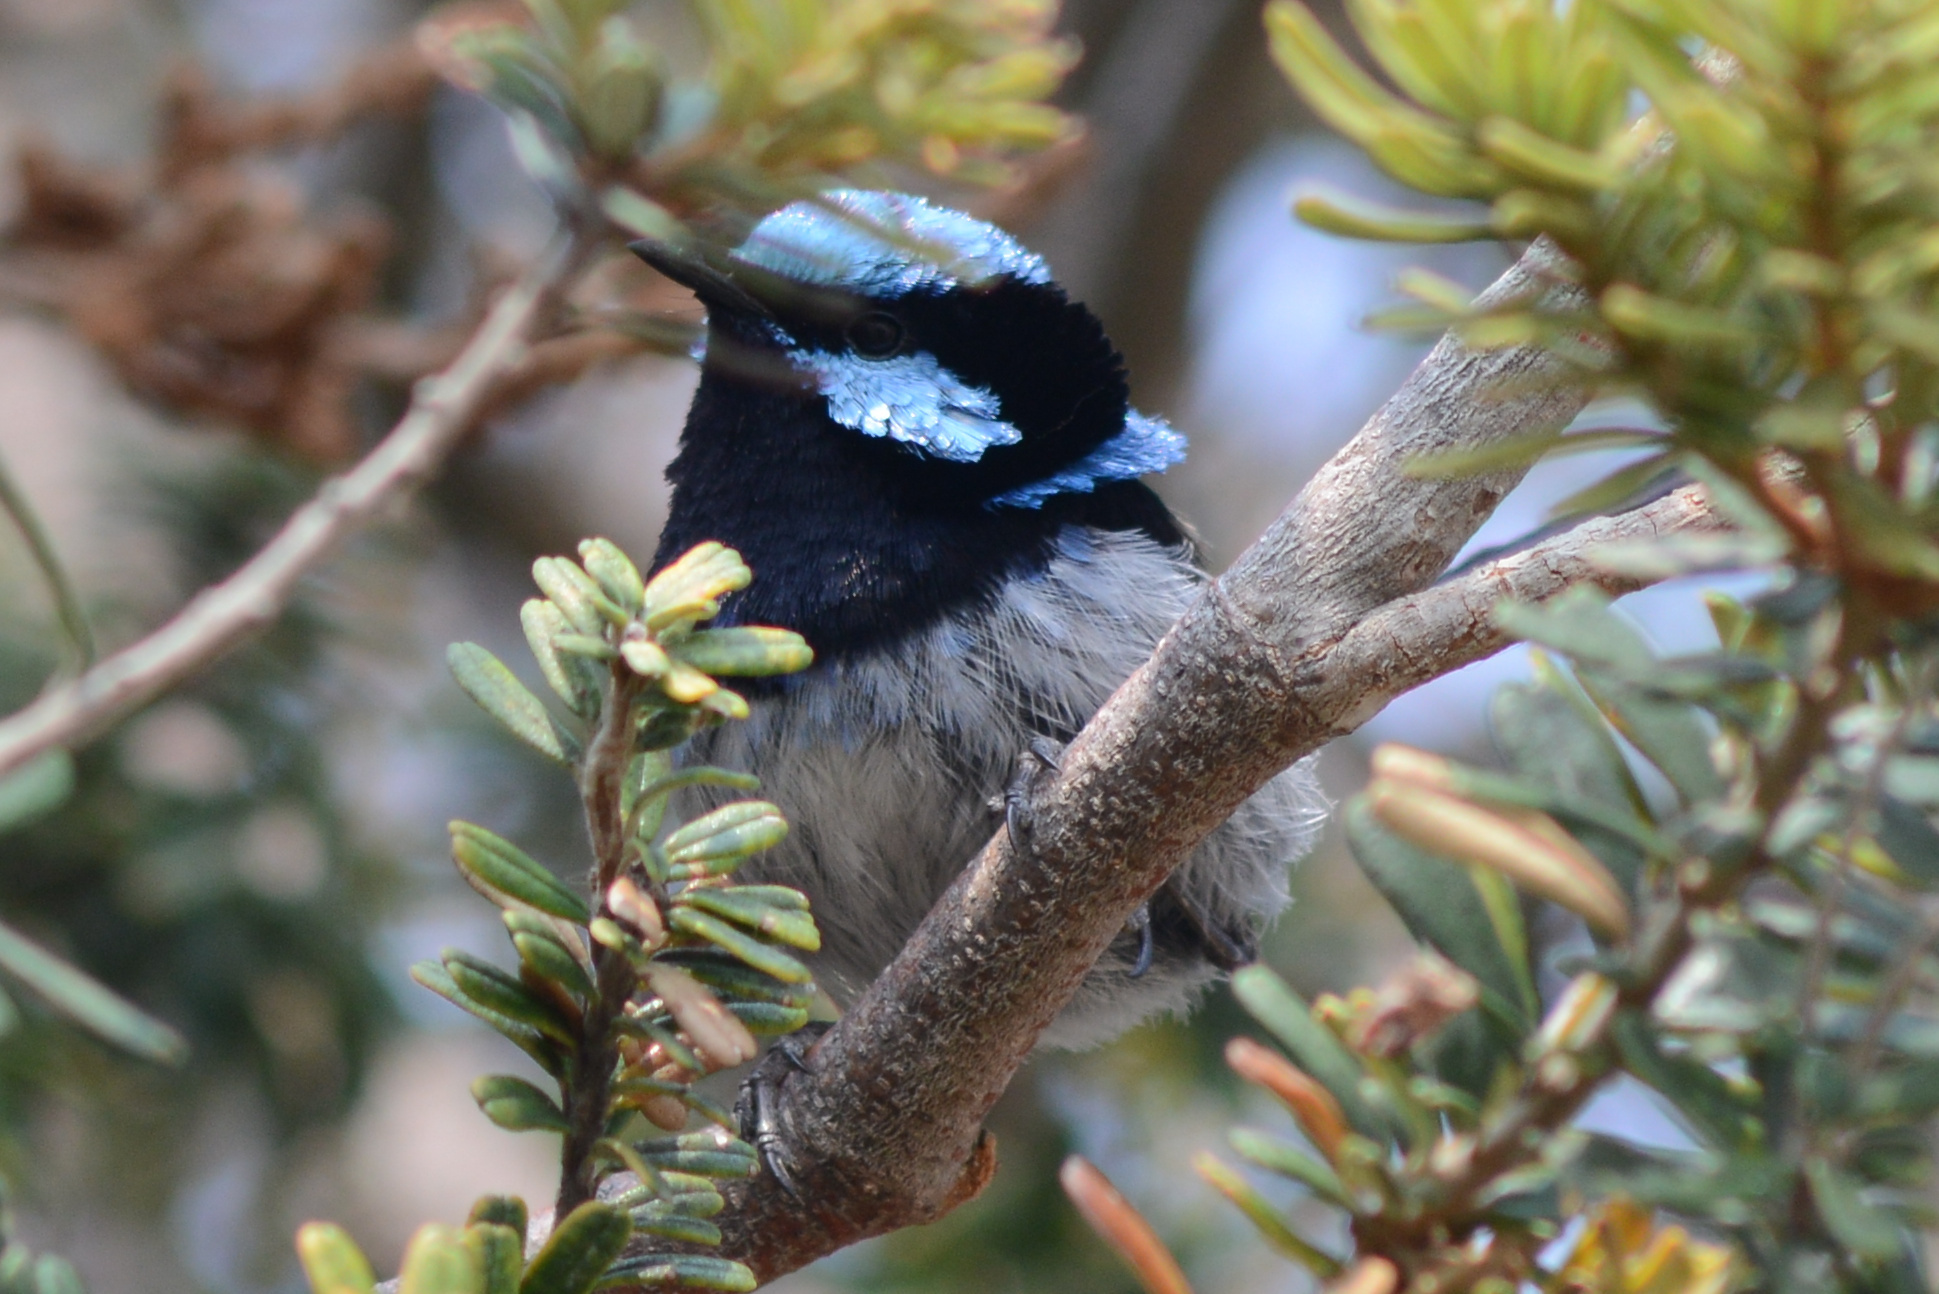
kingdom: Animalia
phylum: Chordata
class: Aves
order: Passeriformes
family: Maluridae
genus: Malurus
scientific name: Malurus cyaneus
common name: Superb fairywren
